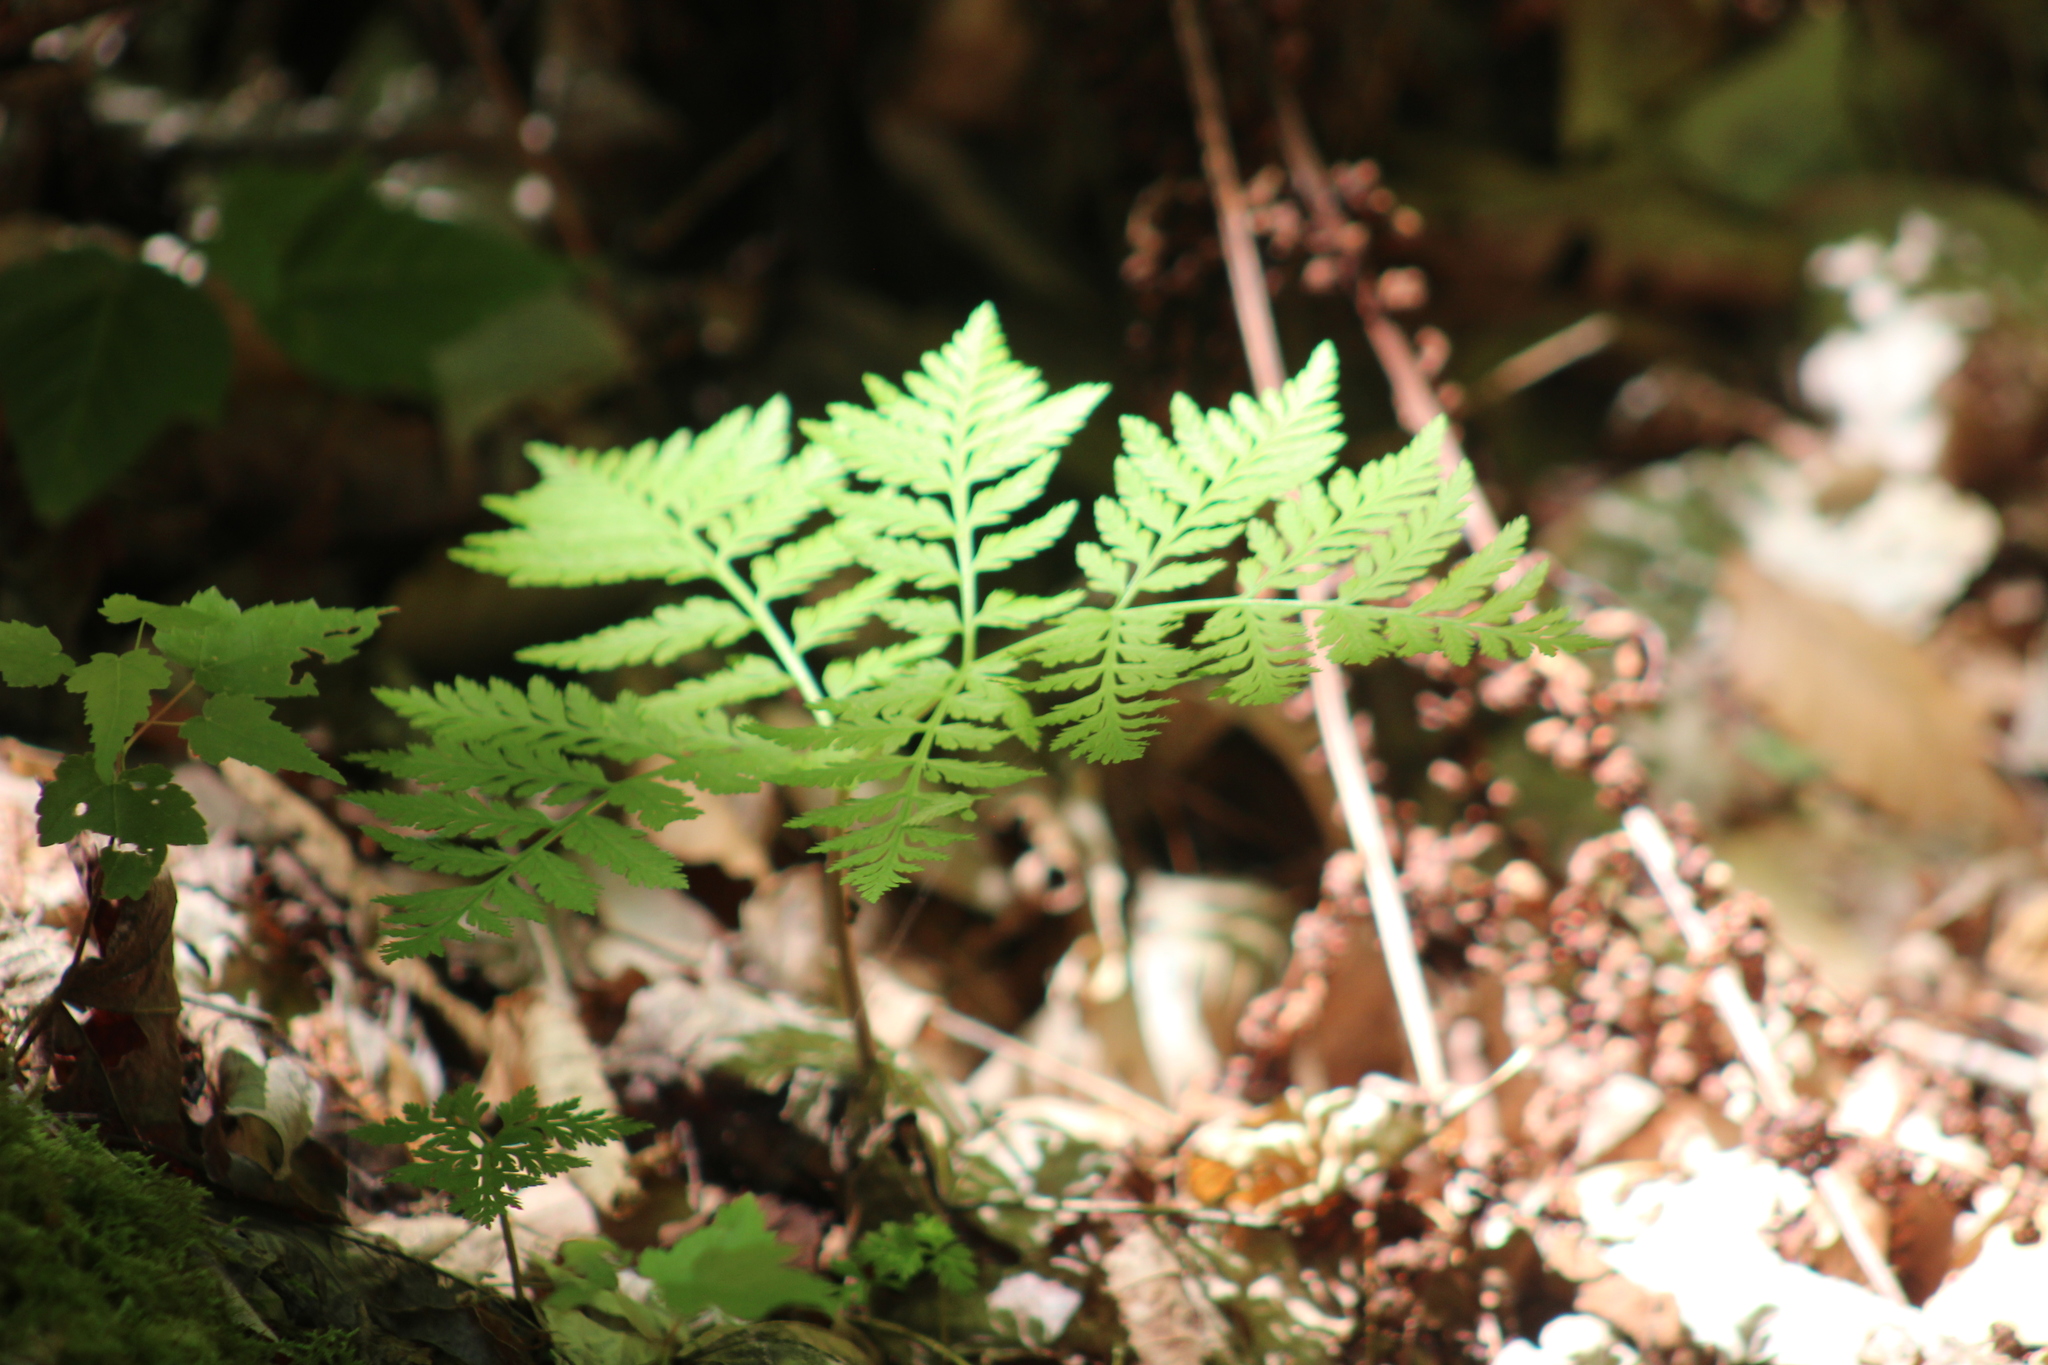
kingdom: Plantae
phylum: Tracheophyta
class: Polypodiopsida
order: Ophioglossales
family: Ophioglossaceae
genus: Botrypus
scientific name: Botrypus virginianus
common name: Common grapefern
